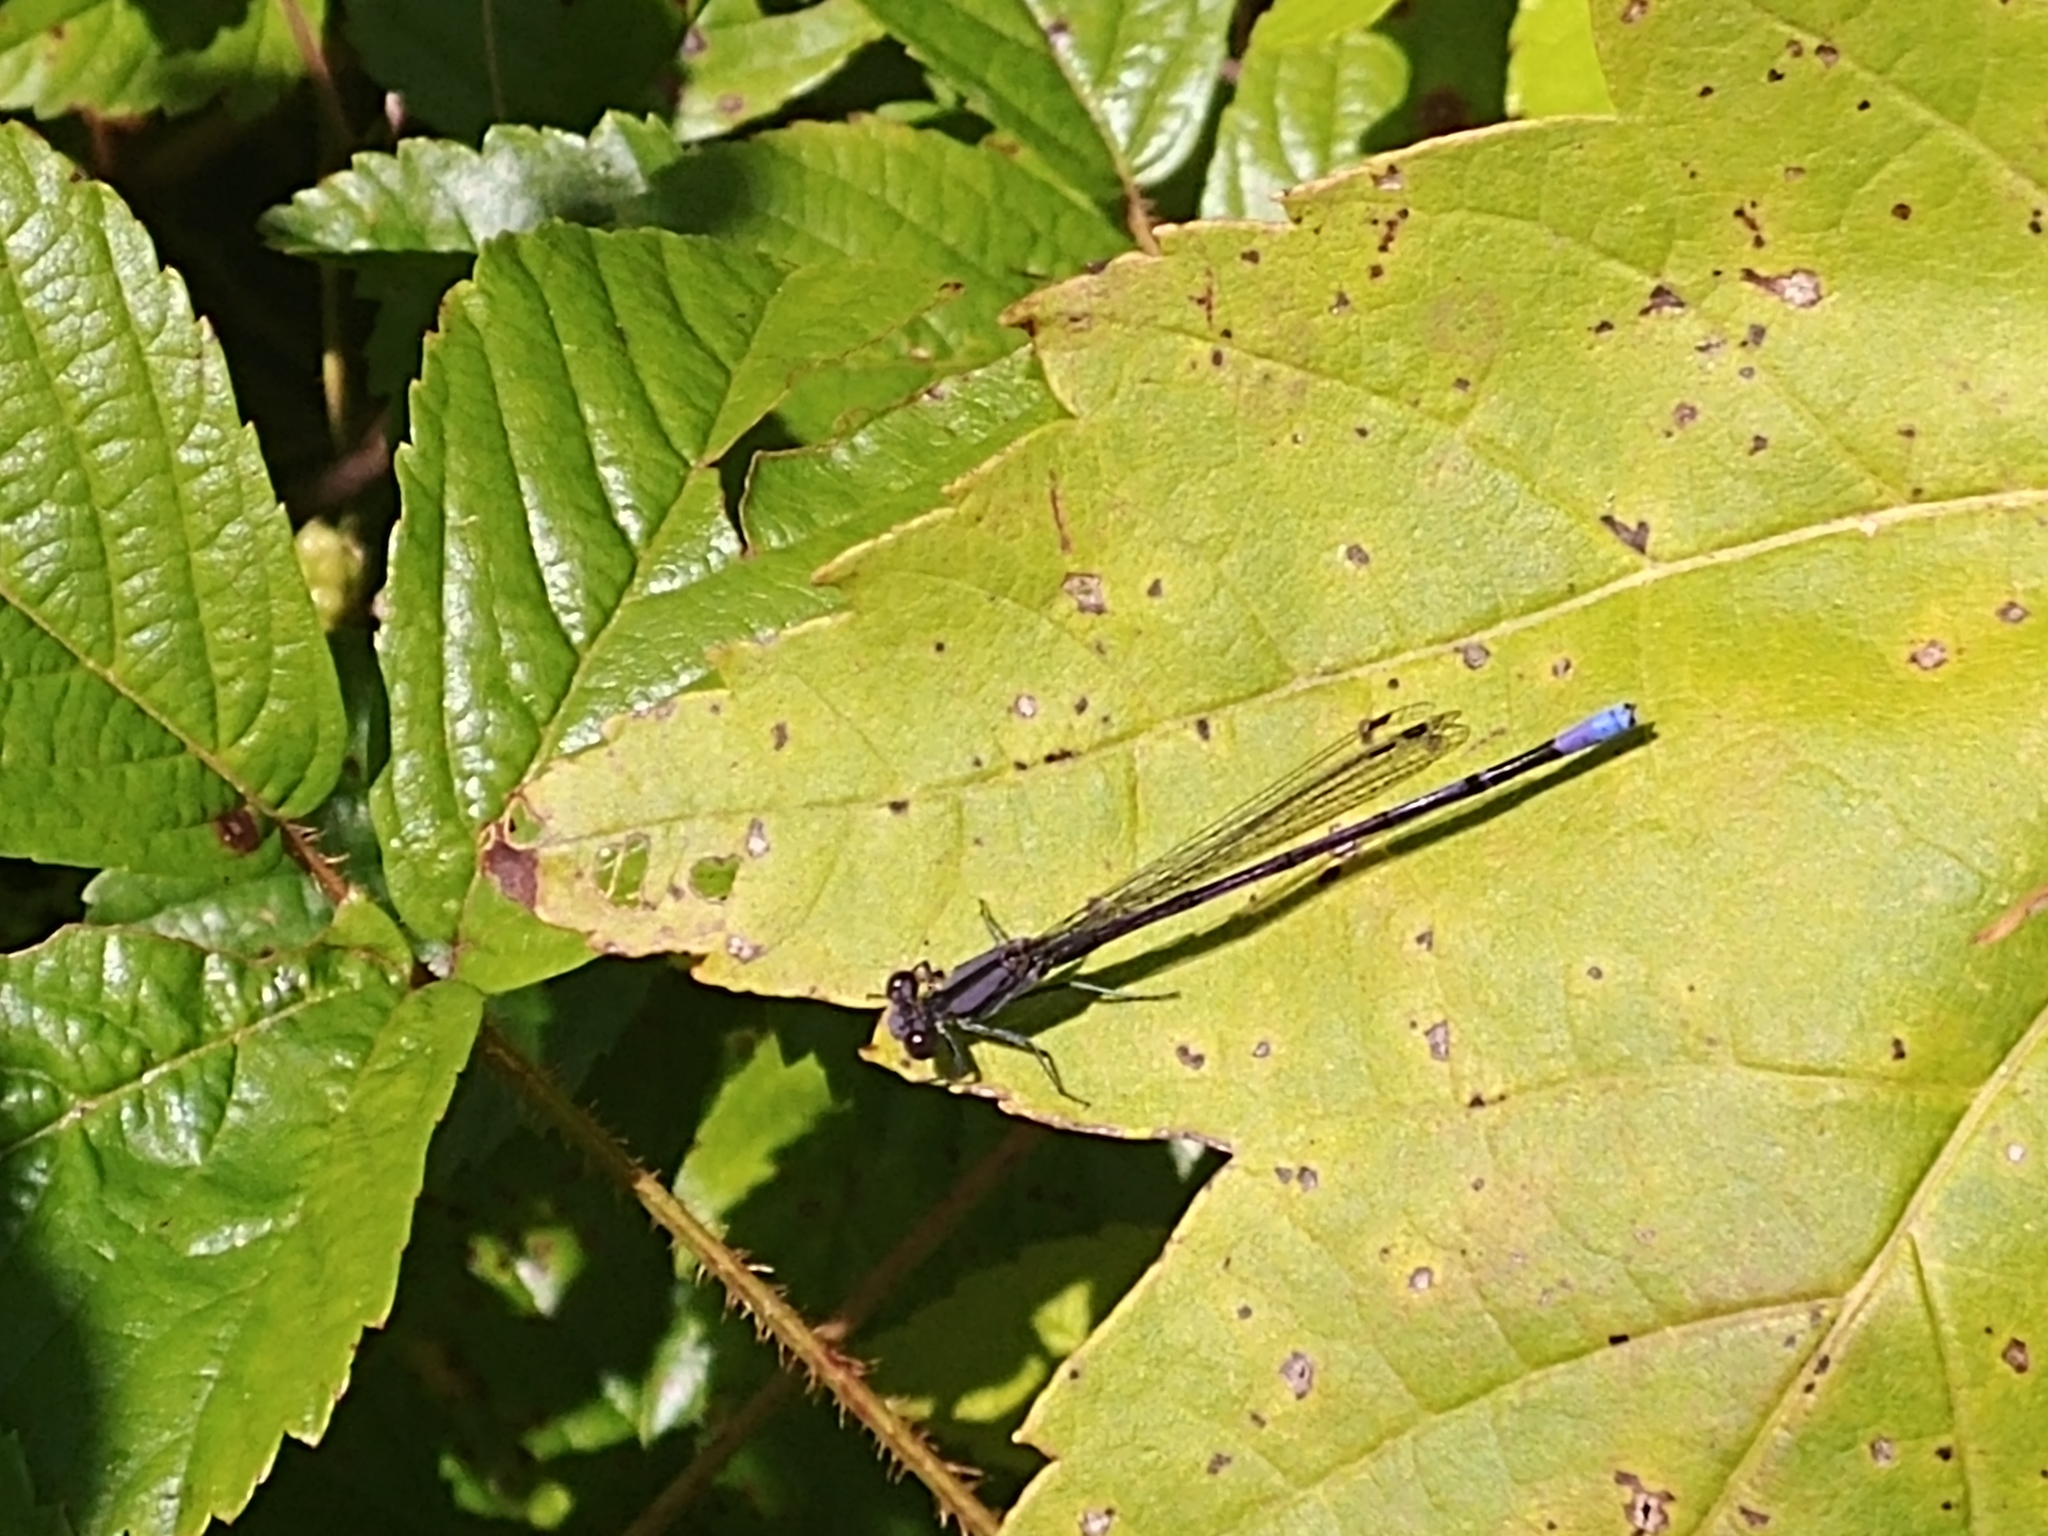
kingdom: Animalia
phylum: Arthropoda
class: Insecta
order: Odonata
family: Coenagrionidae
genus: Argia
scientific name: Argia fumipennis
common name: Variable dancer
